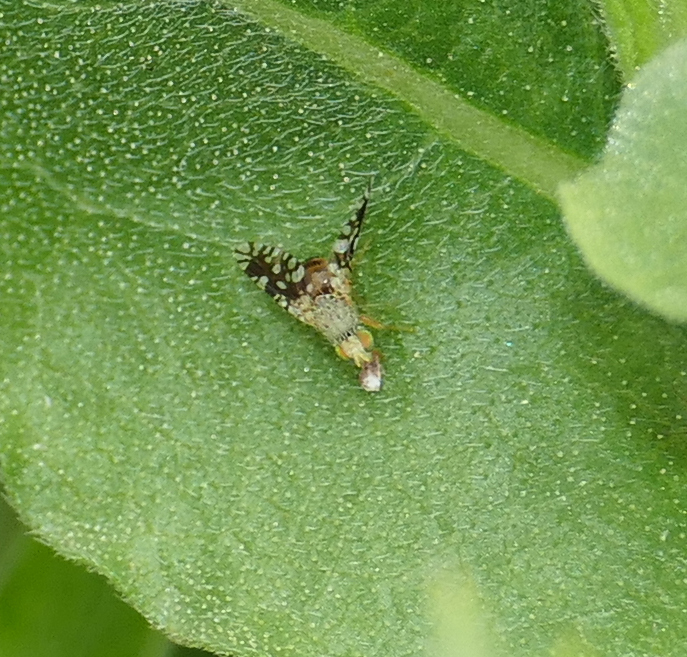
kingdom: Animalia
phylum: Arthropoda
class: Insecta
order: Diptera
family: Tephritidae
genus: Euaresta
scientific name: Euaresta bellula
